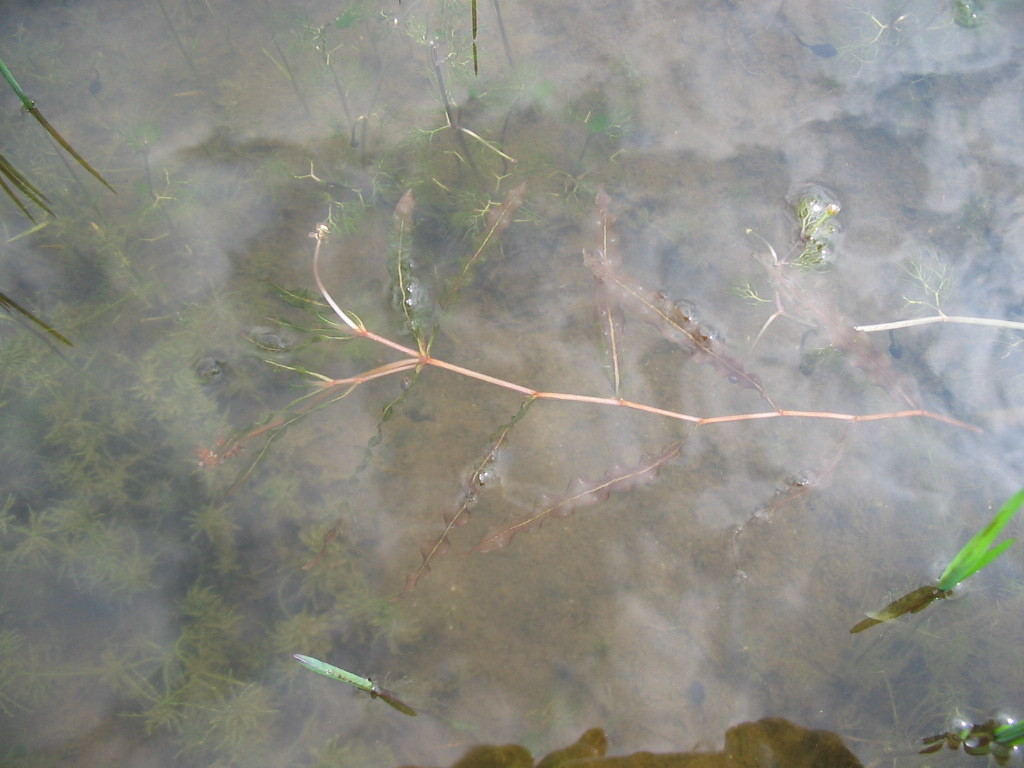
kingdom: Plantae
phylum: Tracheophyta
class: Liliopsida
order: Alismatales
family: Potamogetonaceae
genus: Potamogeton
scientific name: Potamogeton crispus
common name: Curled pondweed
